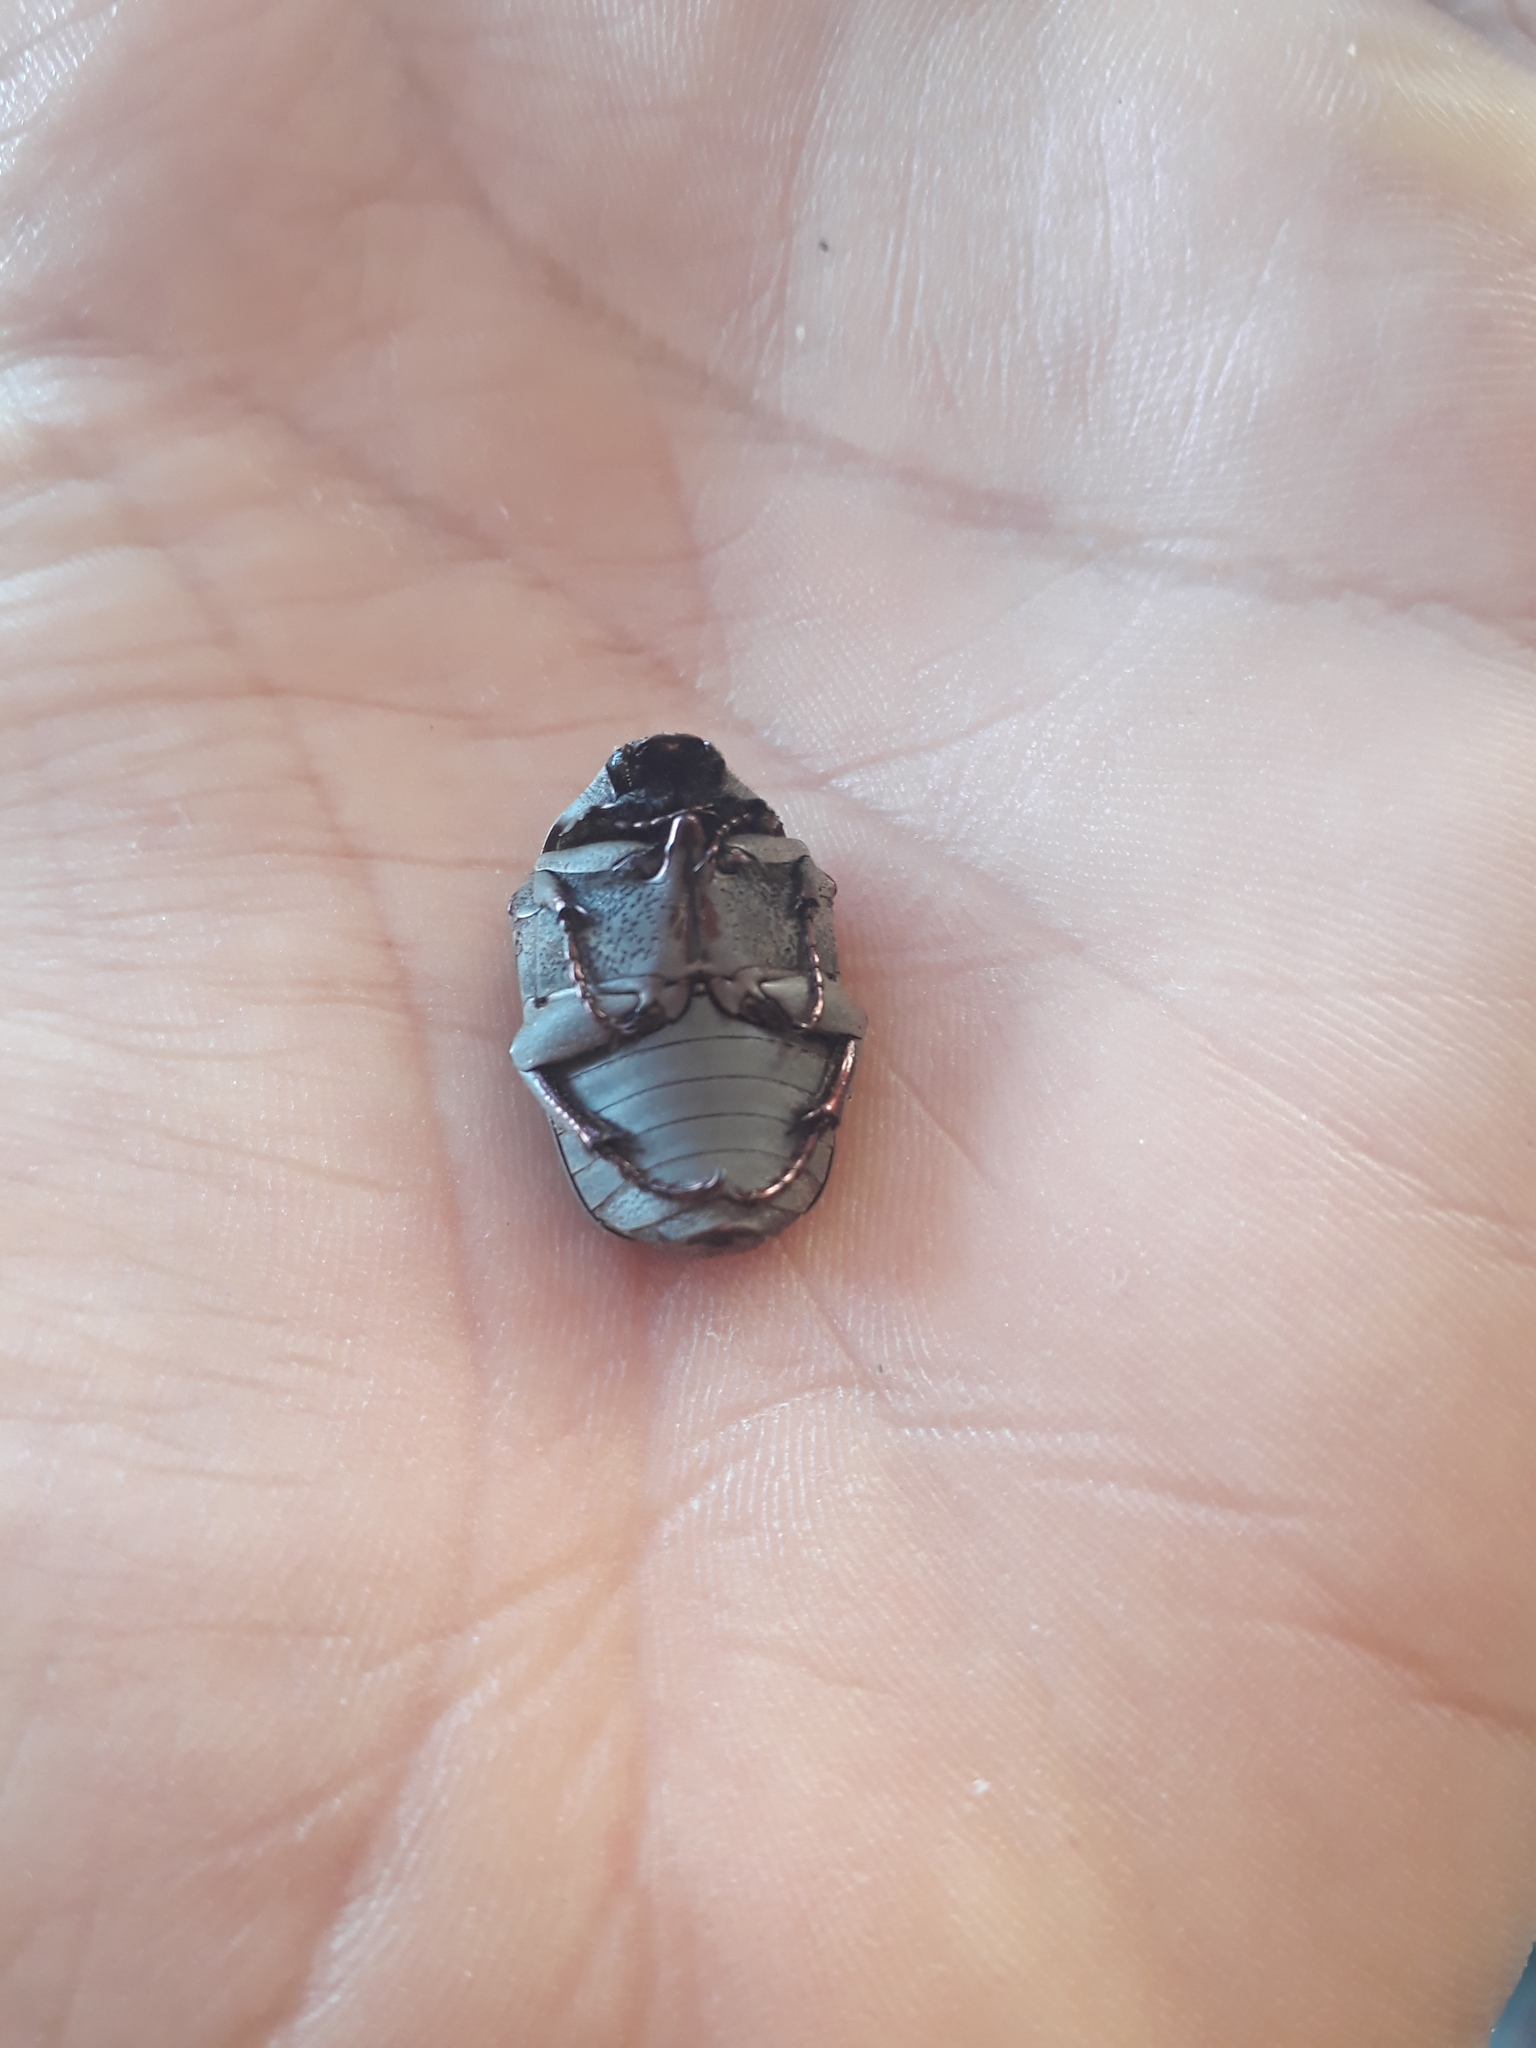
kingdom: Animalia
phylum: Arthropoda
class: Insecta
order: Coleoptera
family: Scarabaeidae
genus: Gymnetis
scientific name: Gymnetis chalcipes
